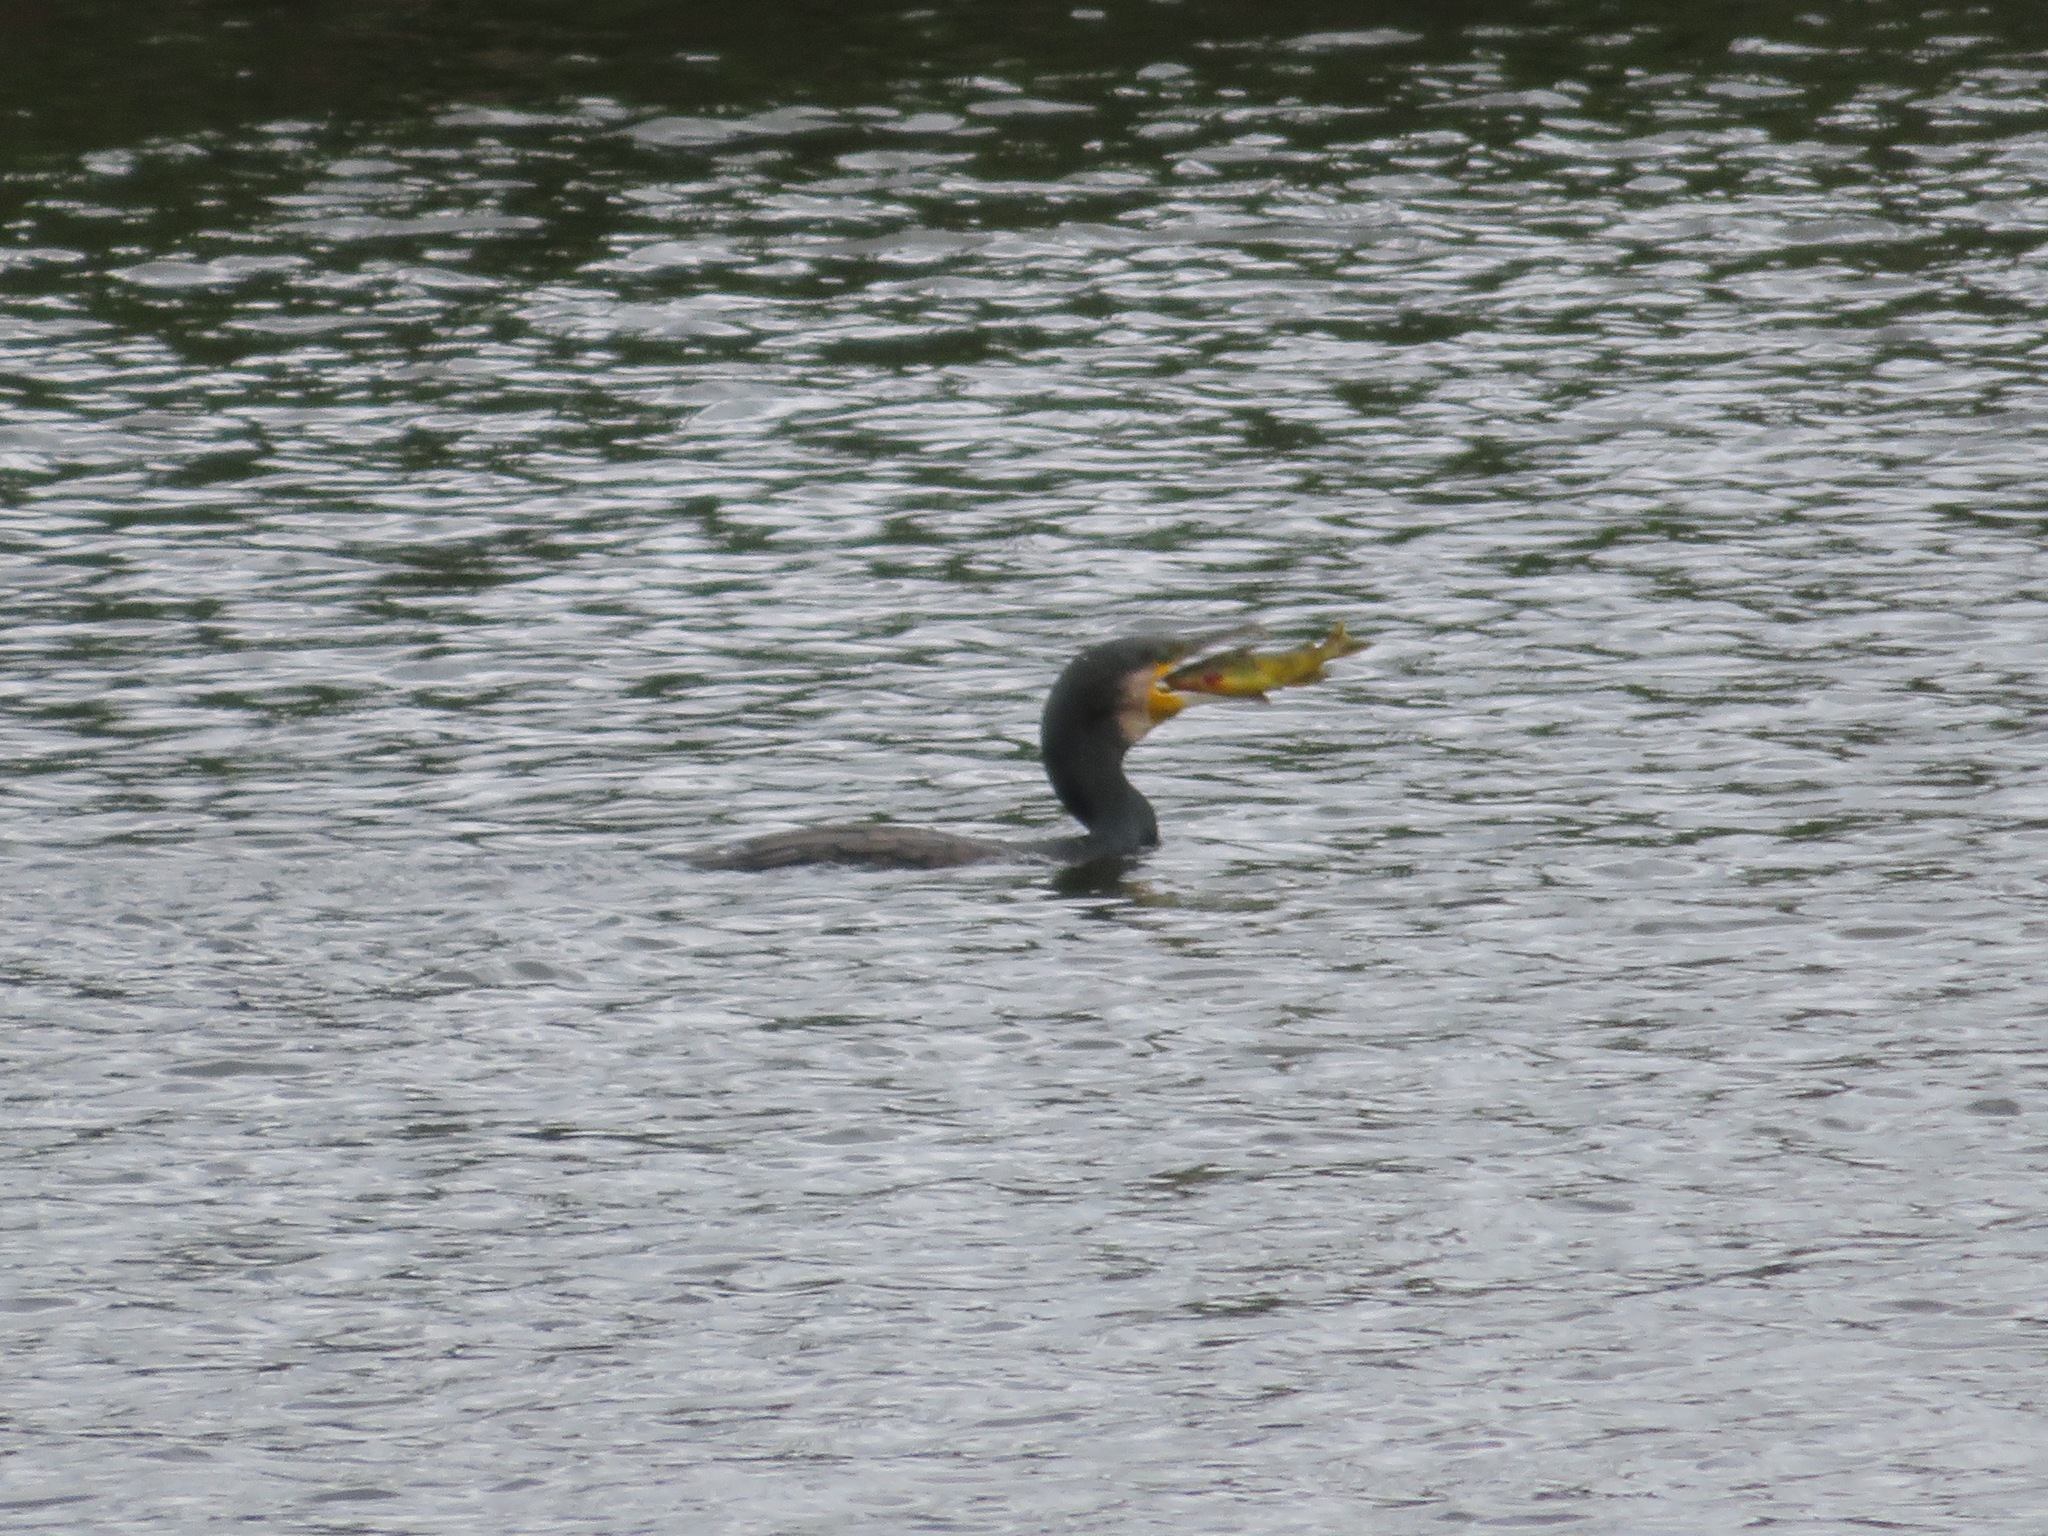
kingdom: Animalia
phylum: Chordata
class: Aves
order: Suliformes
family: Phalacrocoracidae
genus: Phalacrocorax
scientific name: Phalacrocorax carbo
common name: Great cormorant
